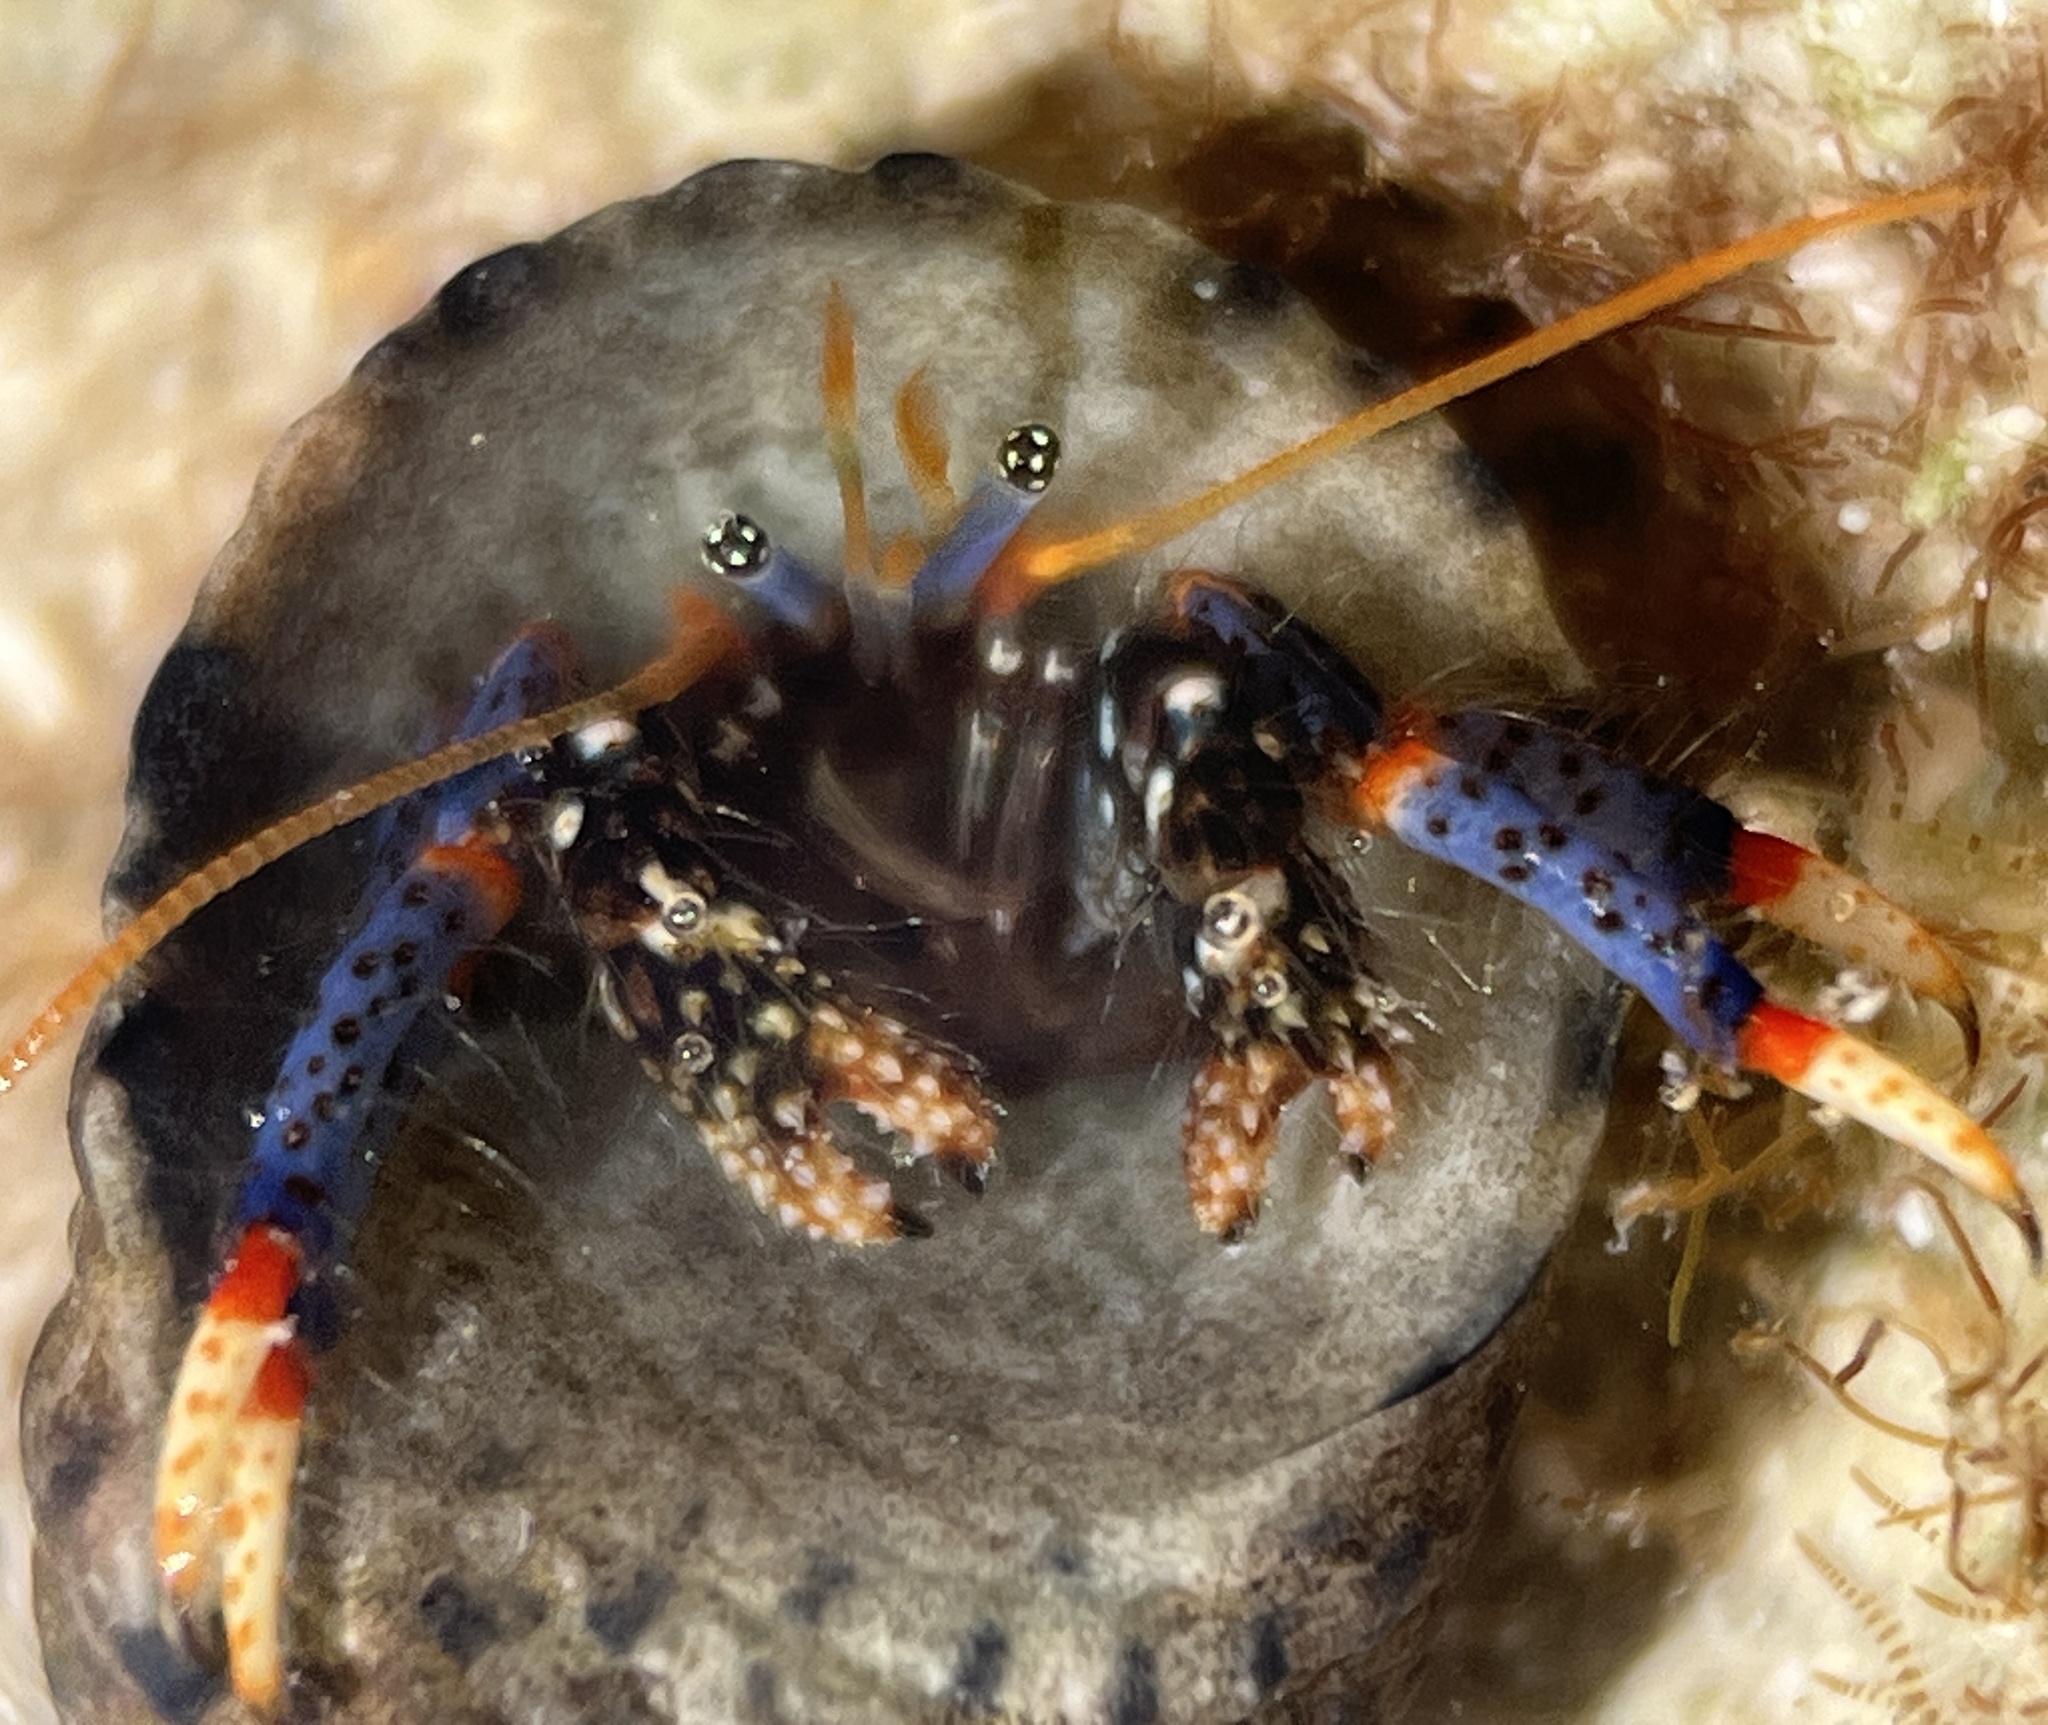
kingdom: Animalia
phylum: Arthropoda
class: Malacostraca
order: Decapoda
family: Diogenidae
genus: Clibanarius
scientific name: Clibanarius tricolor
